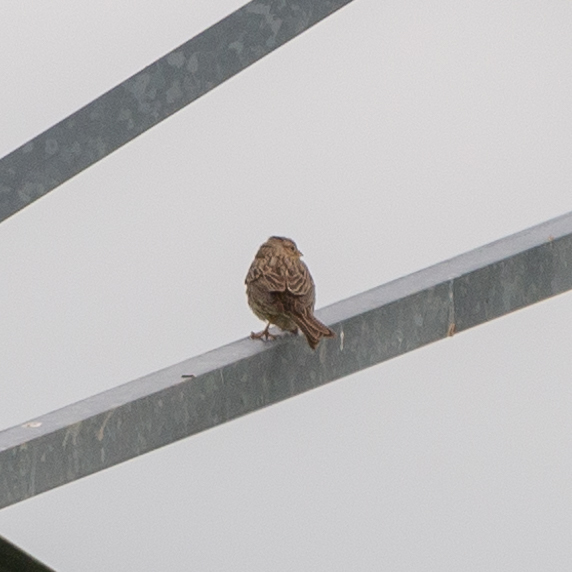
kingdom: Animalia
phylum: Chordata
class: Aves
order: Passeriformes
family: Emberizidae
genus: Emberiza
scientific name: Emberiza calandra
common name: Corn bunting
